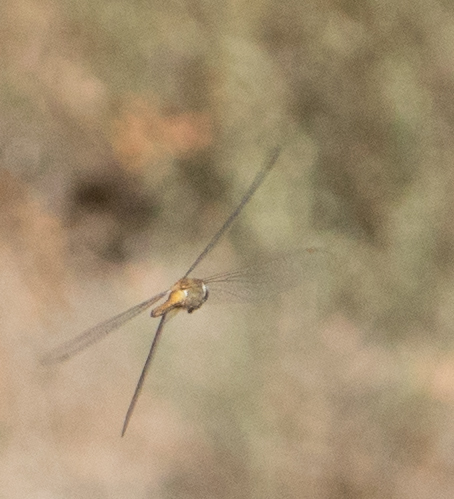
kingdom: Animalia
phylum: Arthropoda
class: Insecta
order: Odonata
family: Libellulidae
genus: Pantala
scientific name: Pantala flavescens
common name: Wandering glider
